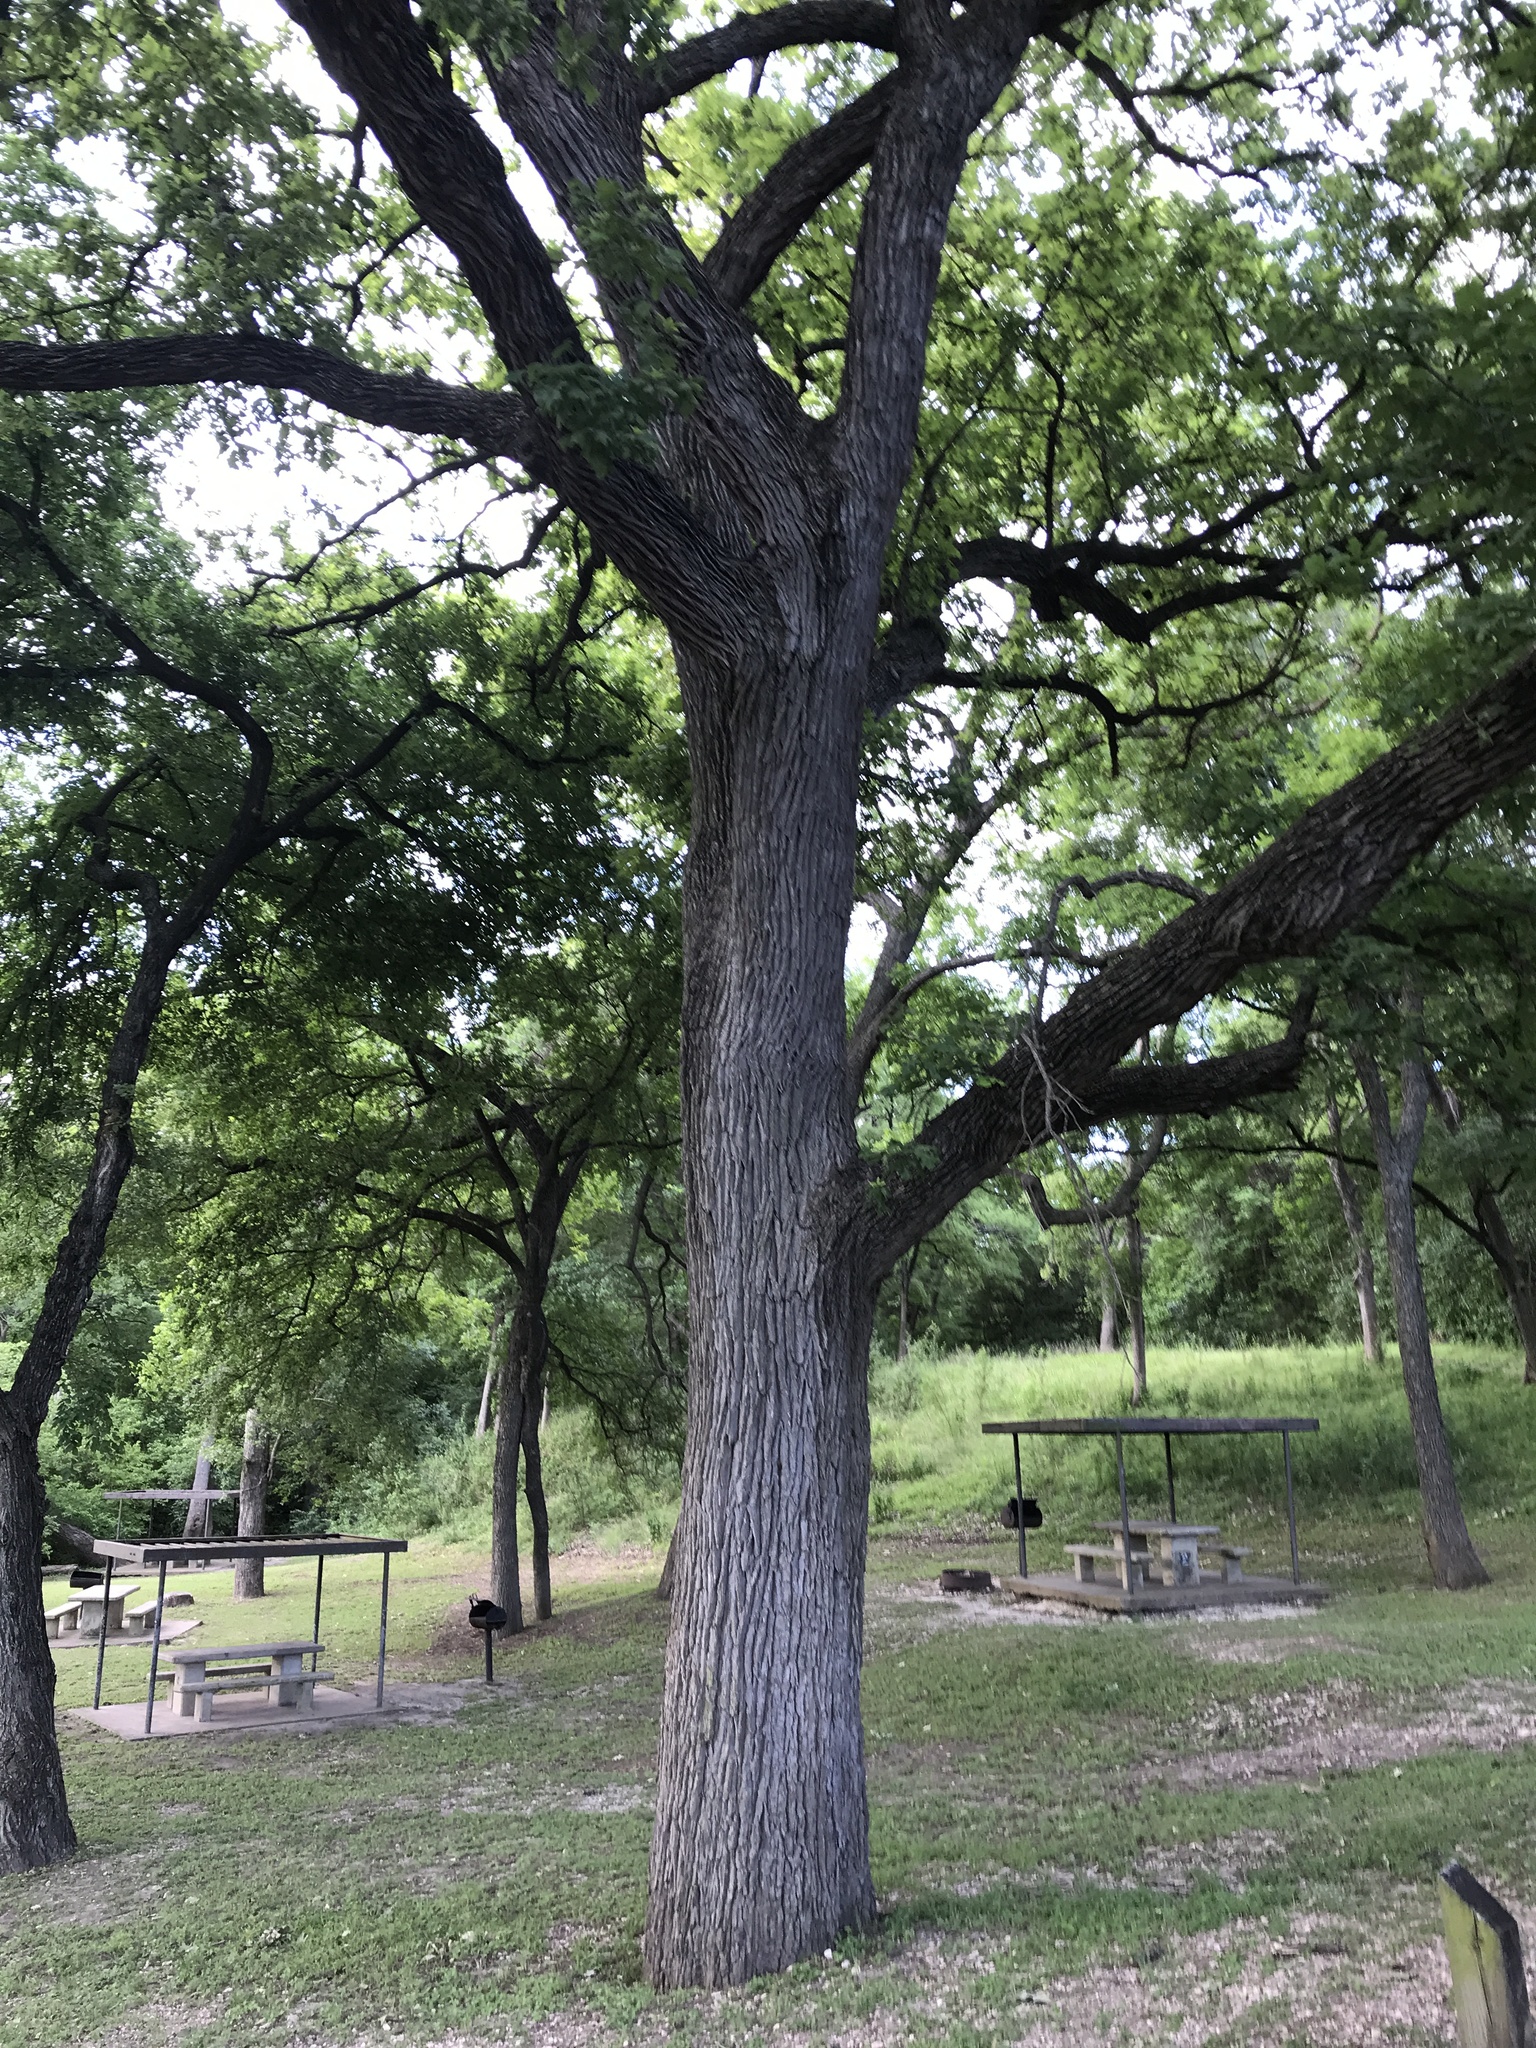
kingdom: Plantae
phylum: Tracheophyta
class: Magnoliopsida
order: Fagales
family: Fagaceae
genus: Quercus
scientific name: Quercus macrocarpa
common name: Bur oak
